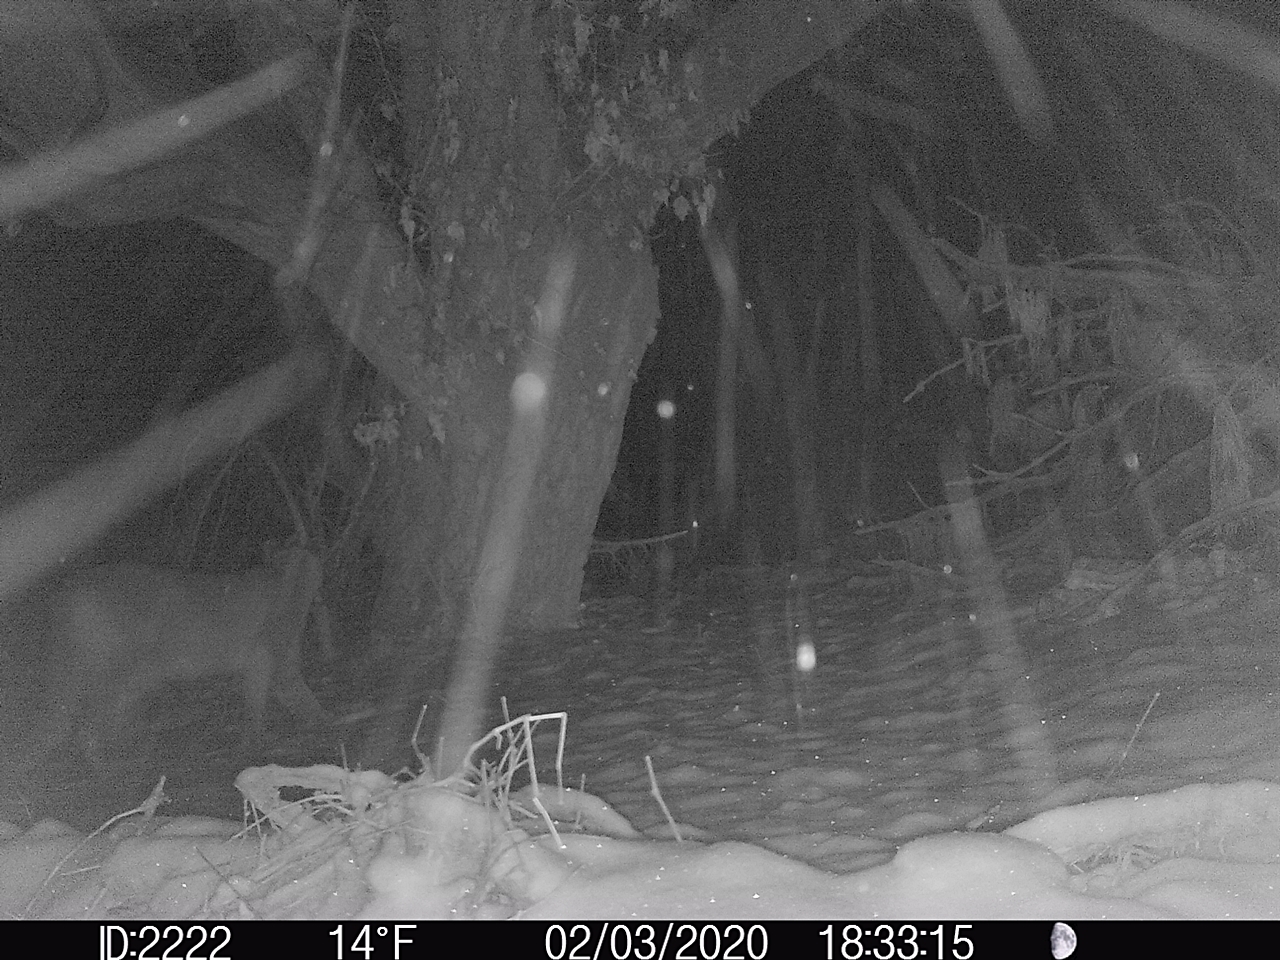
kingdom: Animalia
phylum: Chordata
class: Mammalia
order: Carnivora
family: Felidae
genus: Puma
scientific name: Puma concolor
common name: Puma
